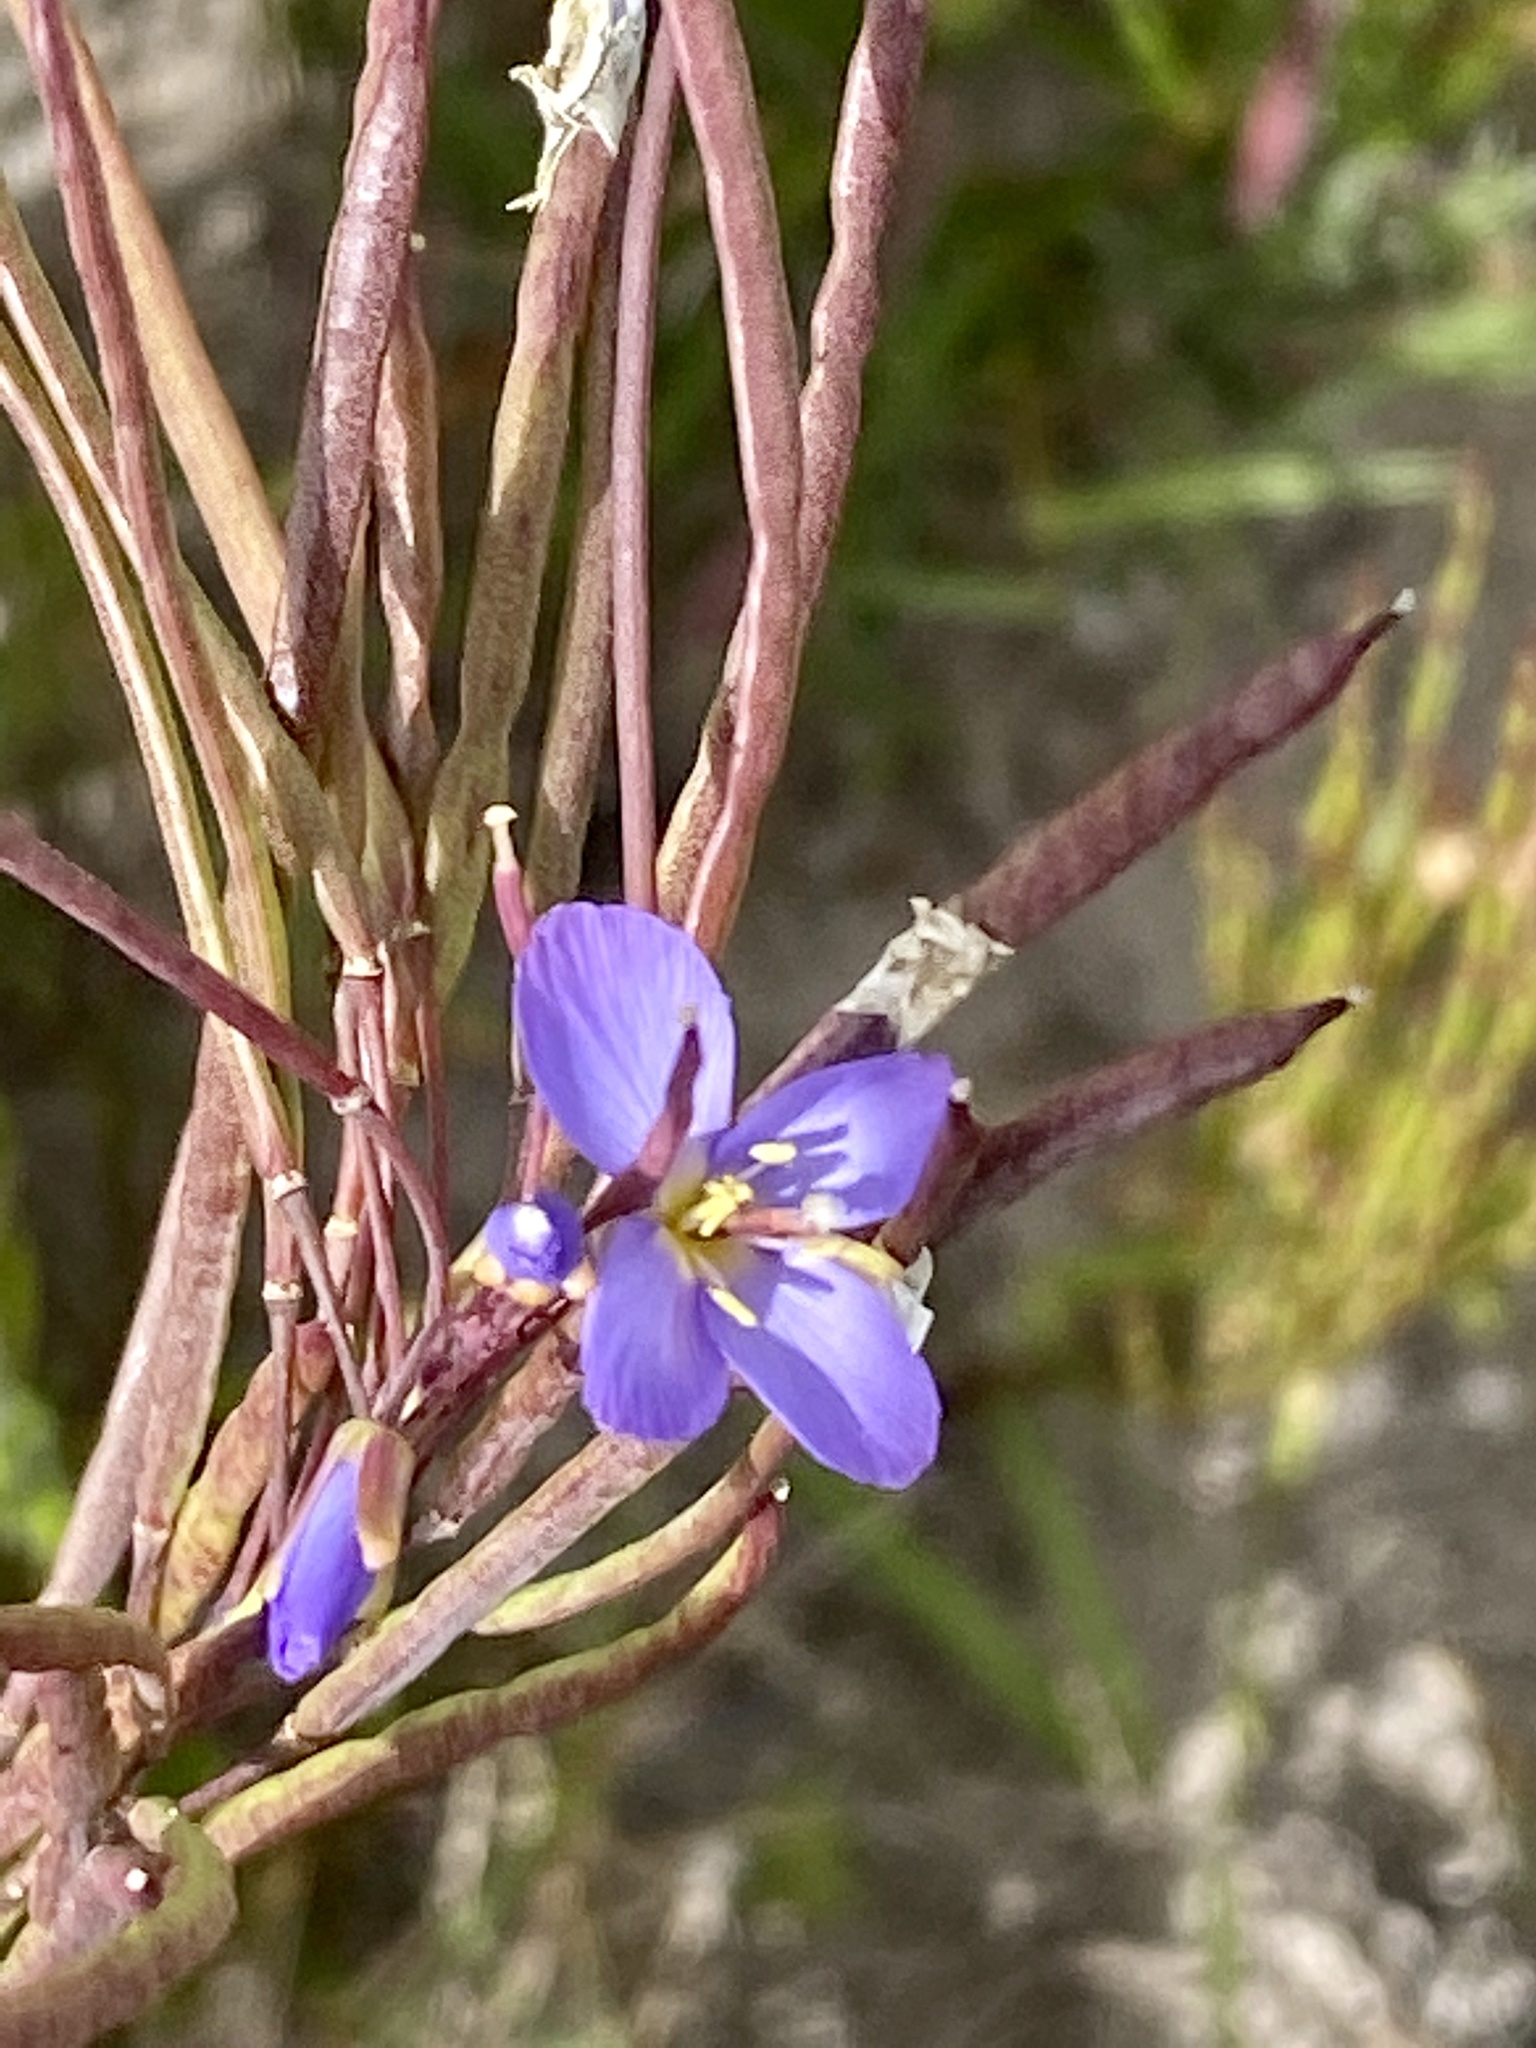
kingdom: Plantae
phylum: Tracheophyta
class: Magnoliopsida
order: Brassicales
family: Brassicaceae
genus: Heliophila
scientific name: Heliophila linearis
